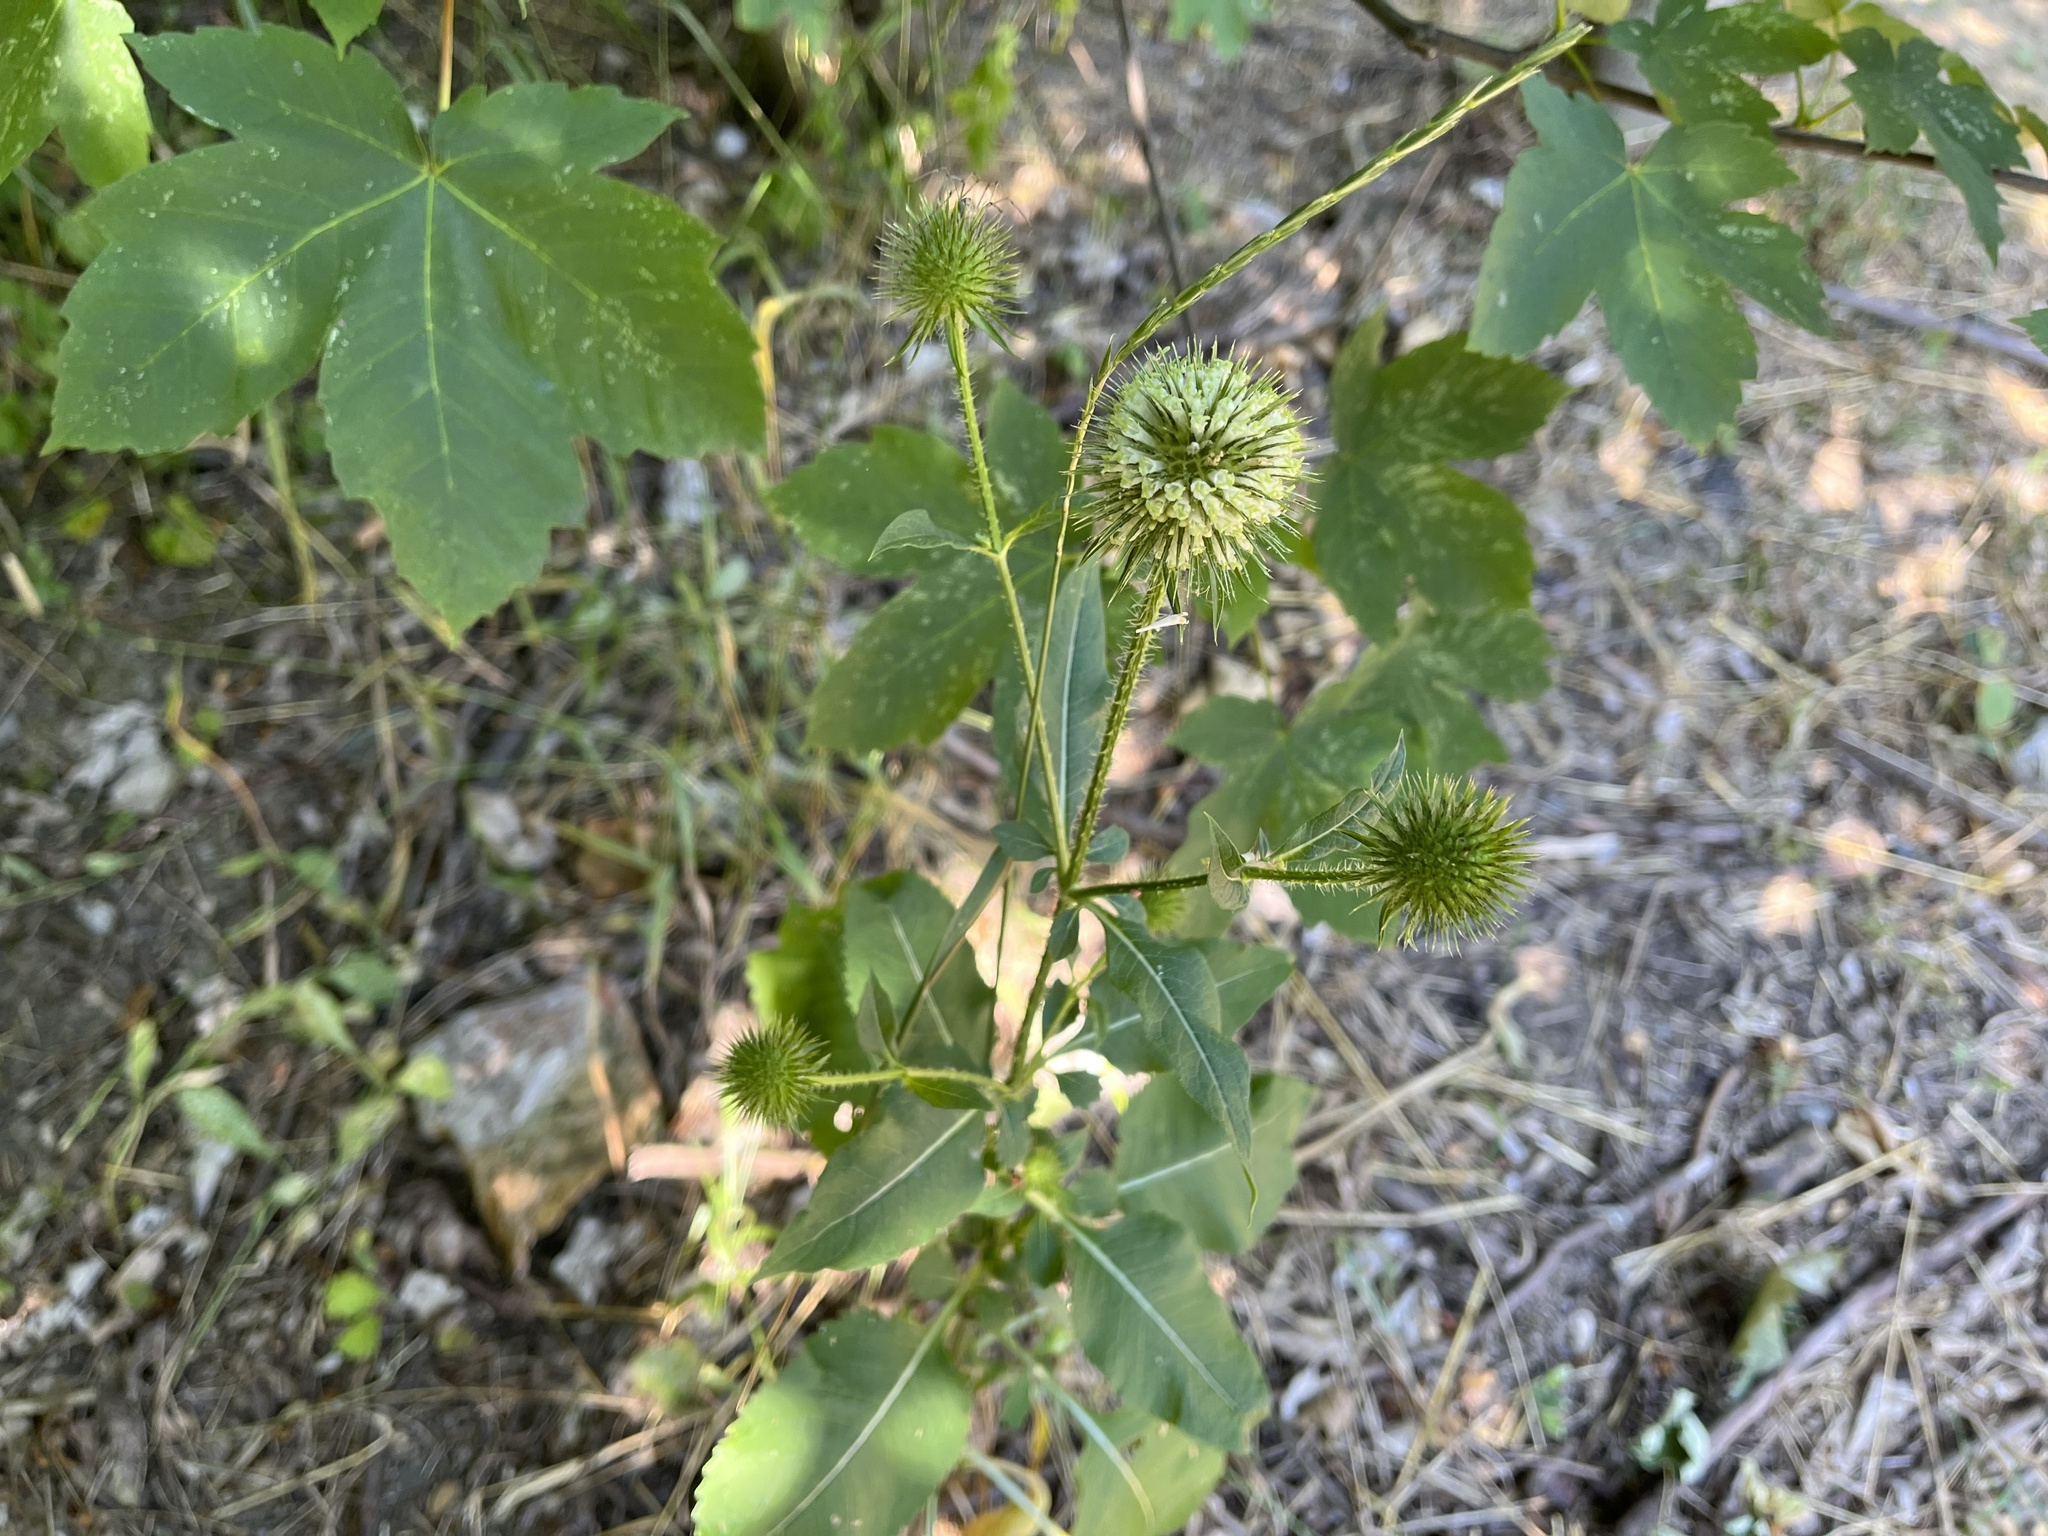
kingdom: Plantae
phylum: Tracheophyta
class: Magnoliopsida
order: Dipsacales
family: Caprifoliaceae
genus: Dipsacus
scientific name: Dipsacus strigosus
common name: Yellow-flowered teasel
